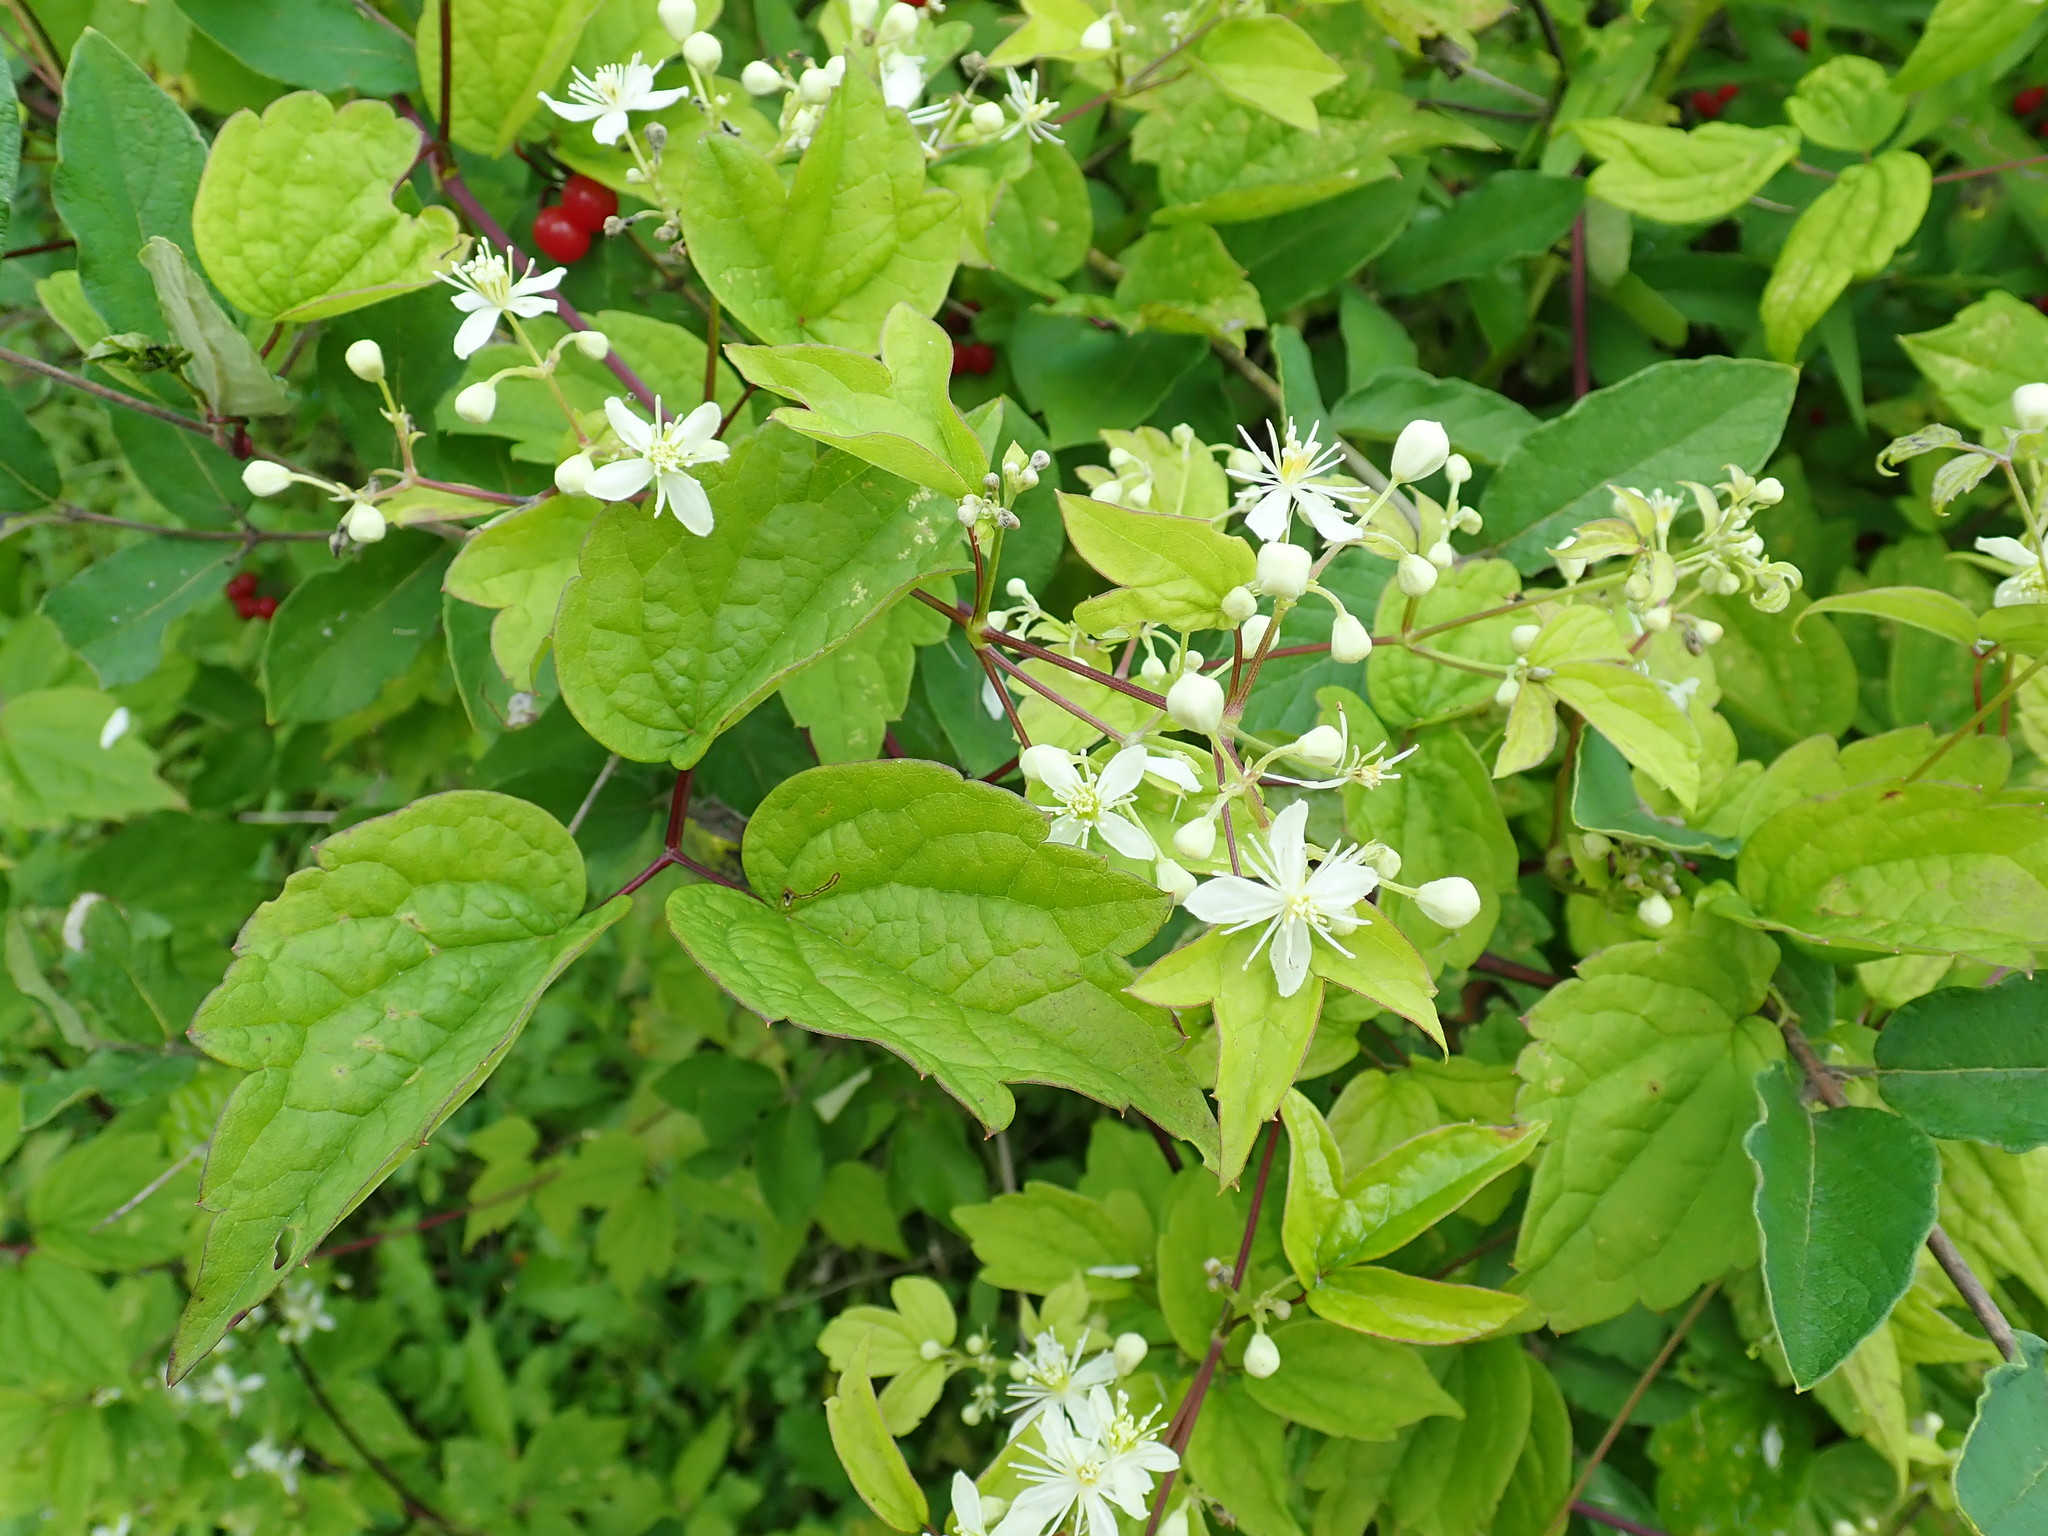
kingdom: Plantae
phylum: Tracheophyta
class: Magnoliopsida
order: Ranunculales
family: Ranunculaceae
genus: Clematis
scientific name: Clematis virginiana
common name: Virgin's-bower
